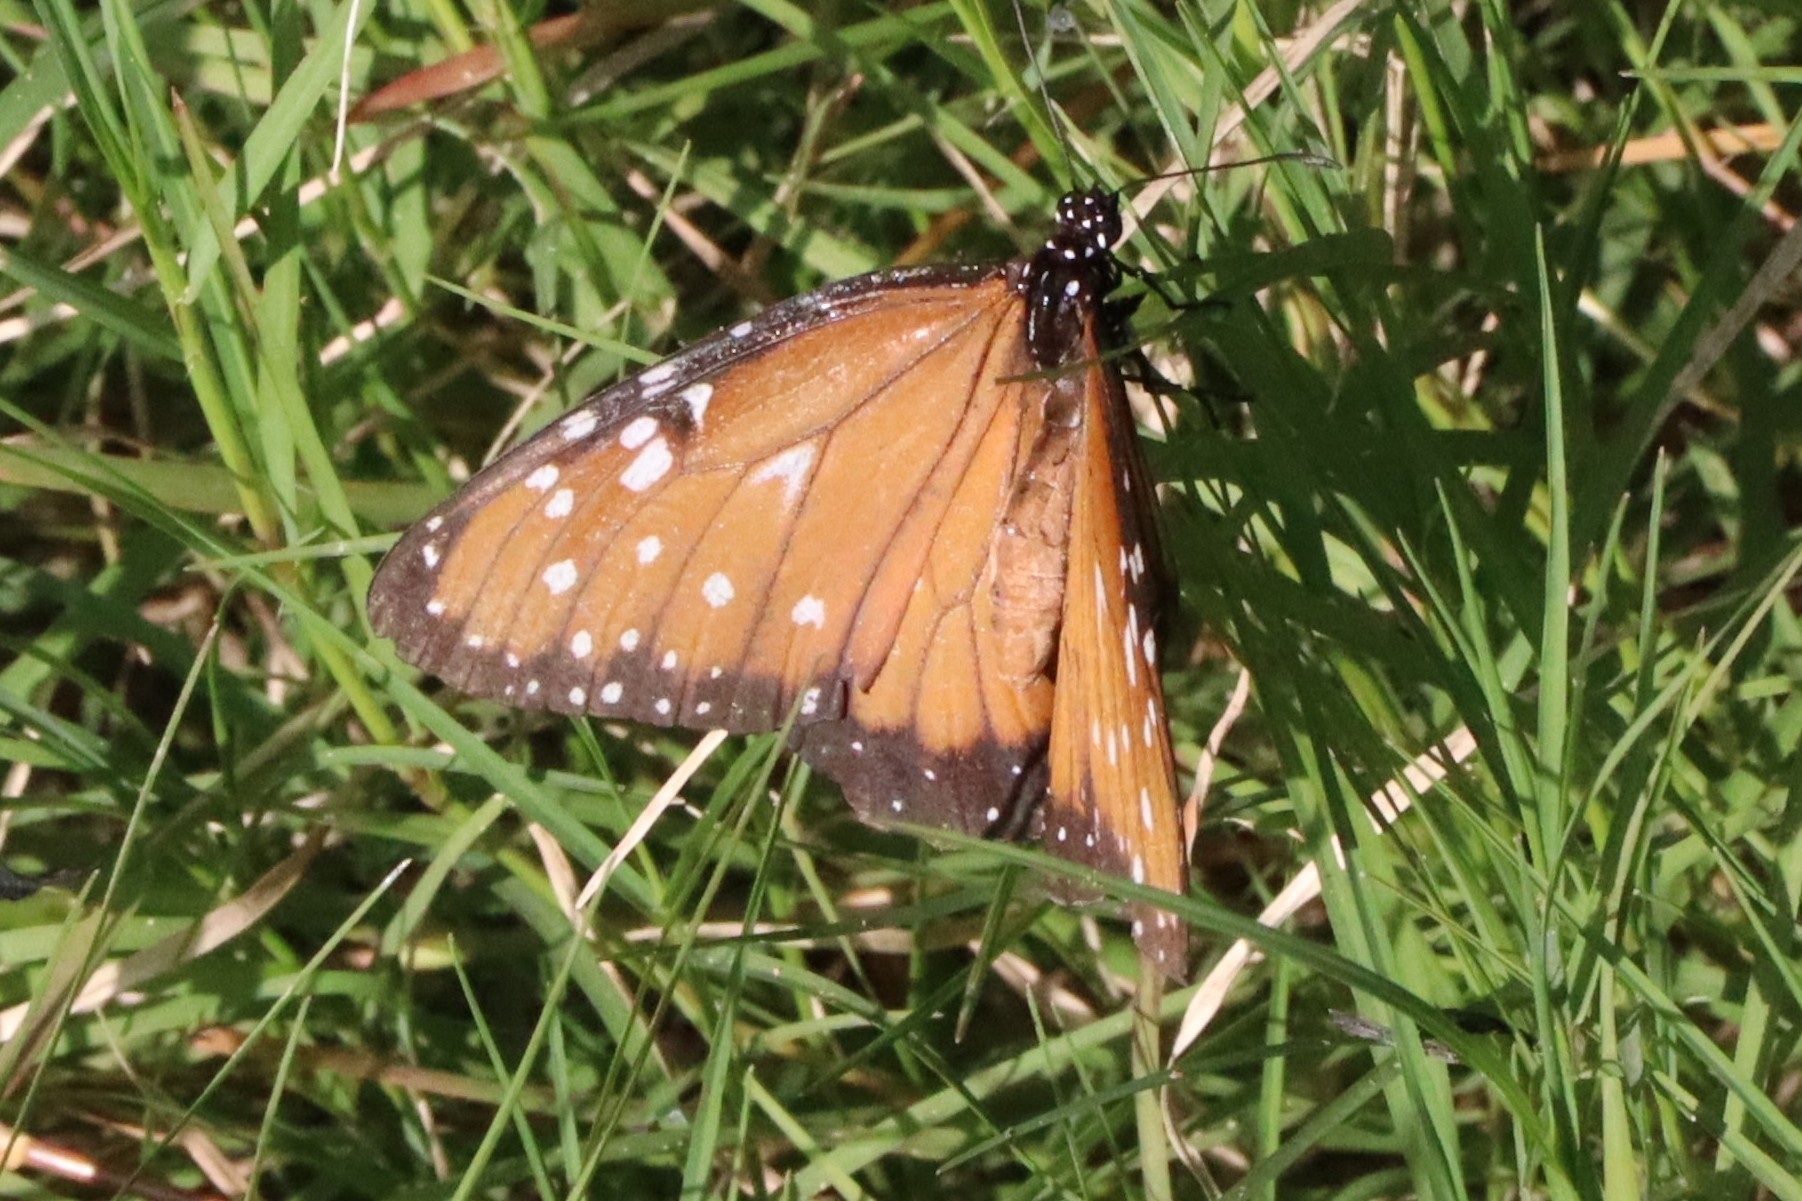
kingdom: Animalia
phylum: Arthropoda
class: Insecta
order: Lepidoptera
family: Nymphalidae
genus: Danaus
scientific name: Danaus gilippus
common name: Queen
